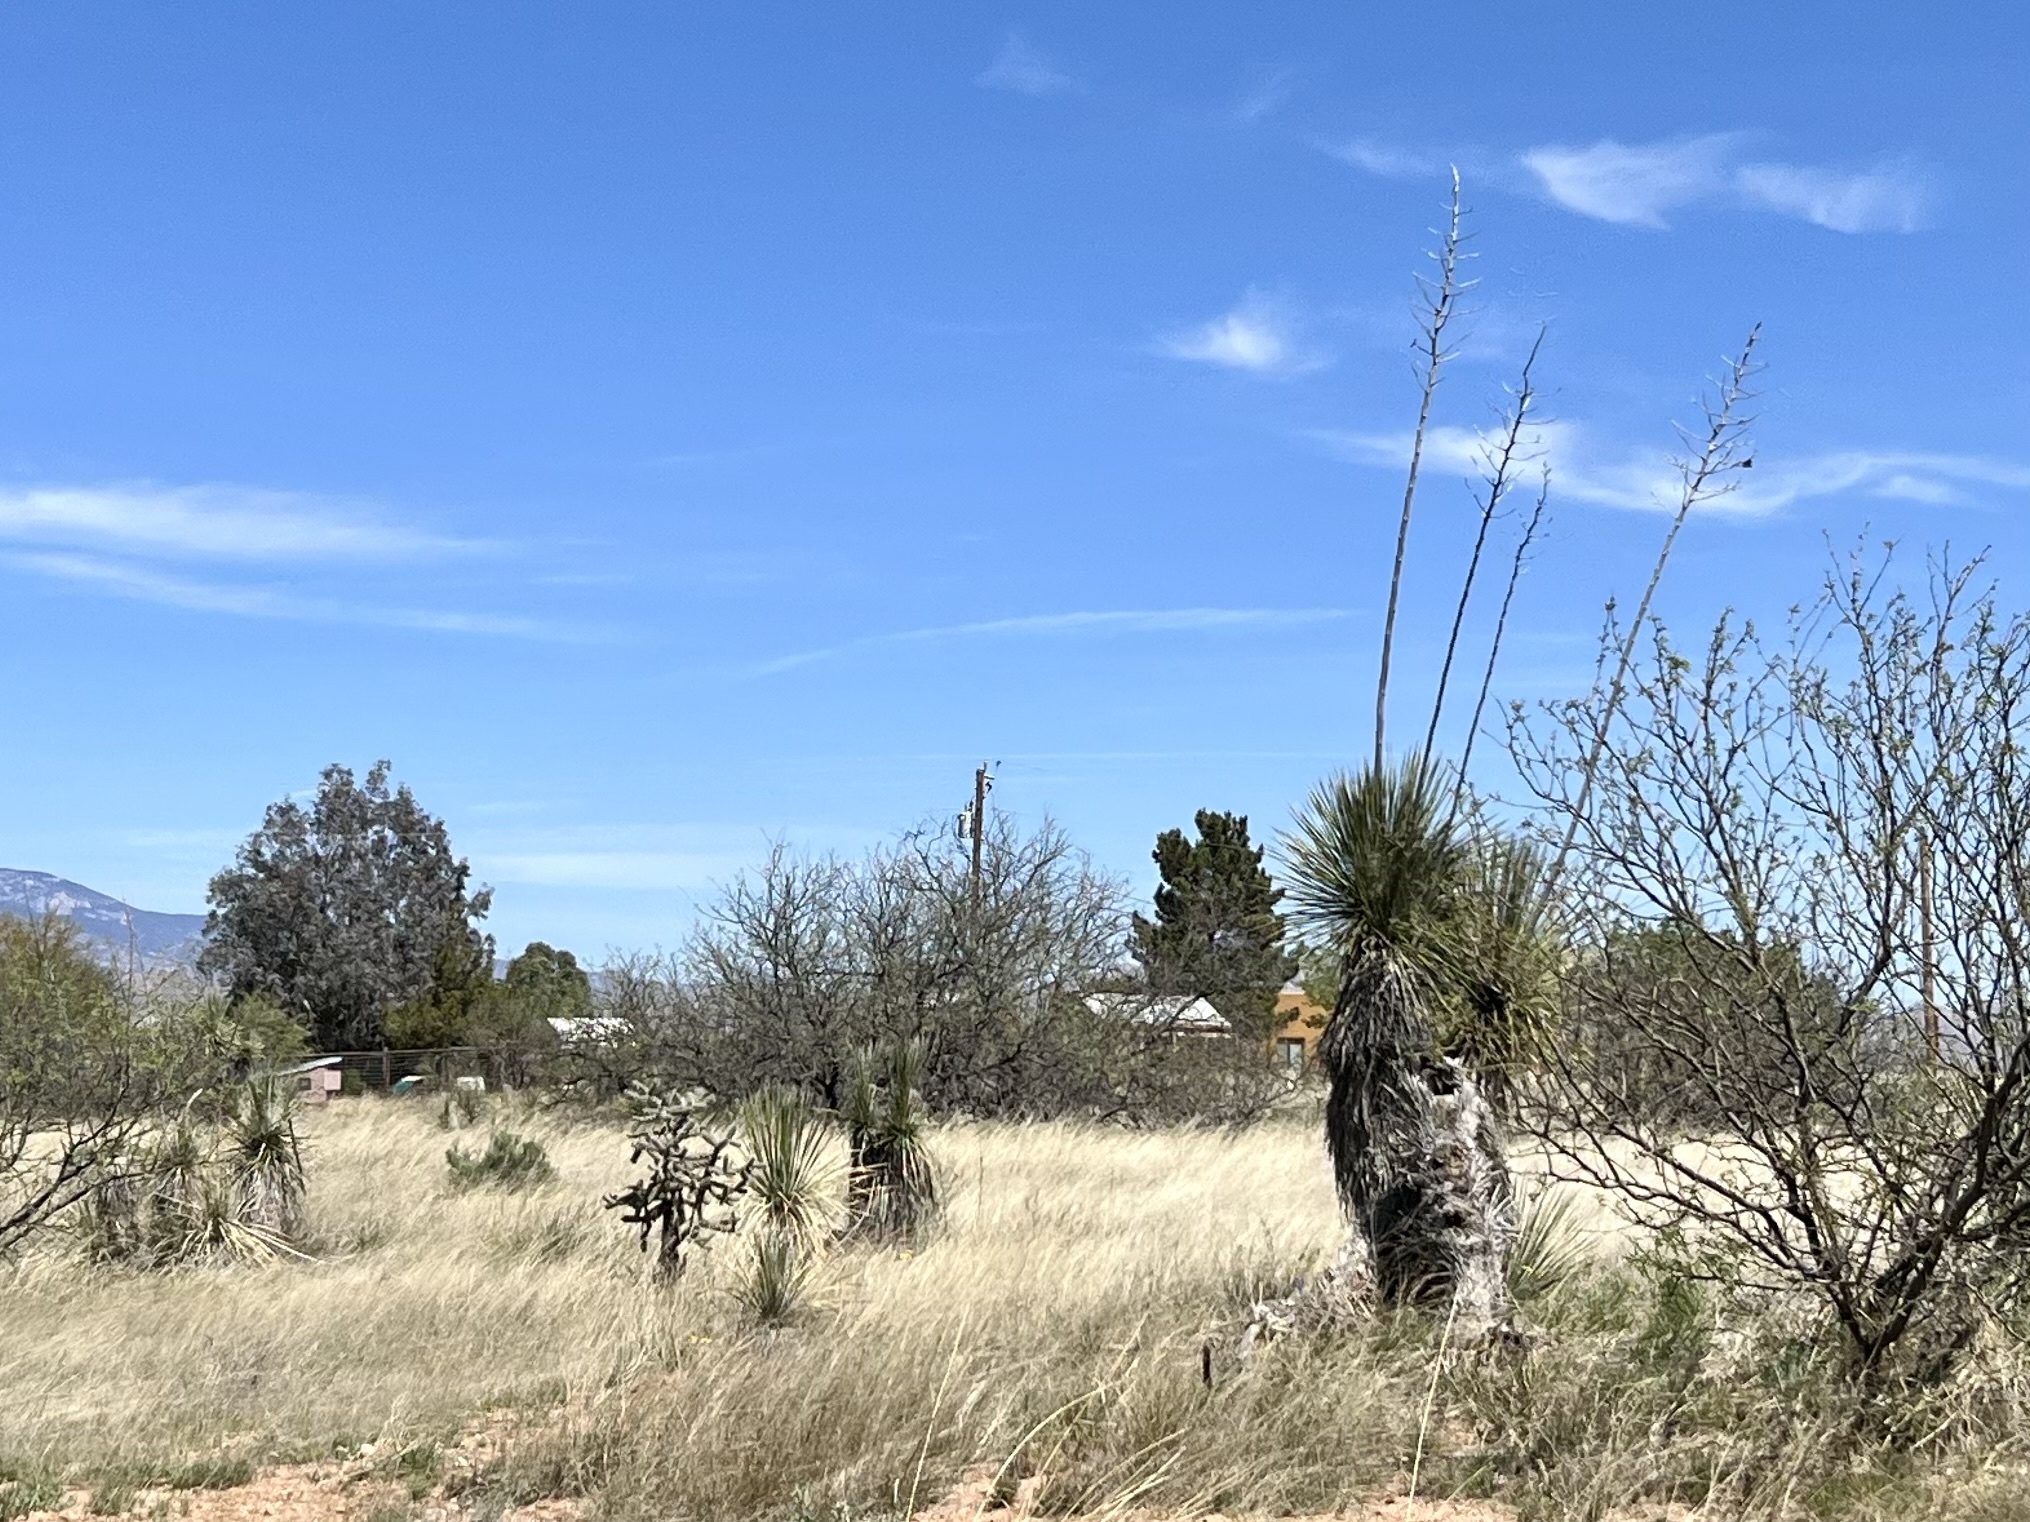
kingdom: Plantae
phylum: Tracheophyta
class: Liliopsida
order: Asparagales
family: Asparagaceae
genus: Yucca
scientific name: Yucca elata
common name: Palmella
